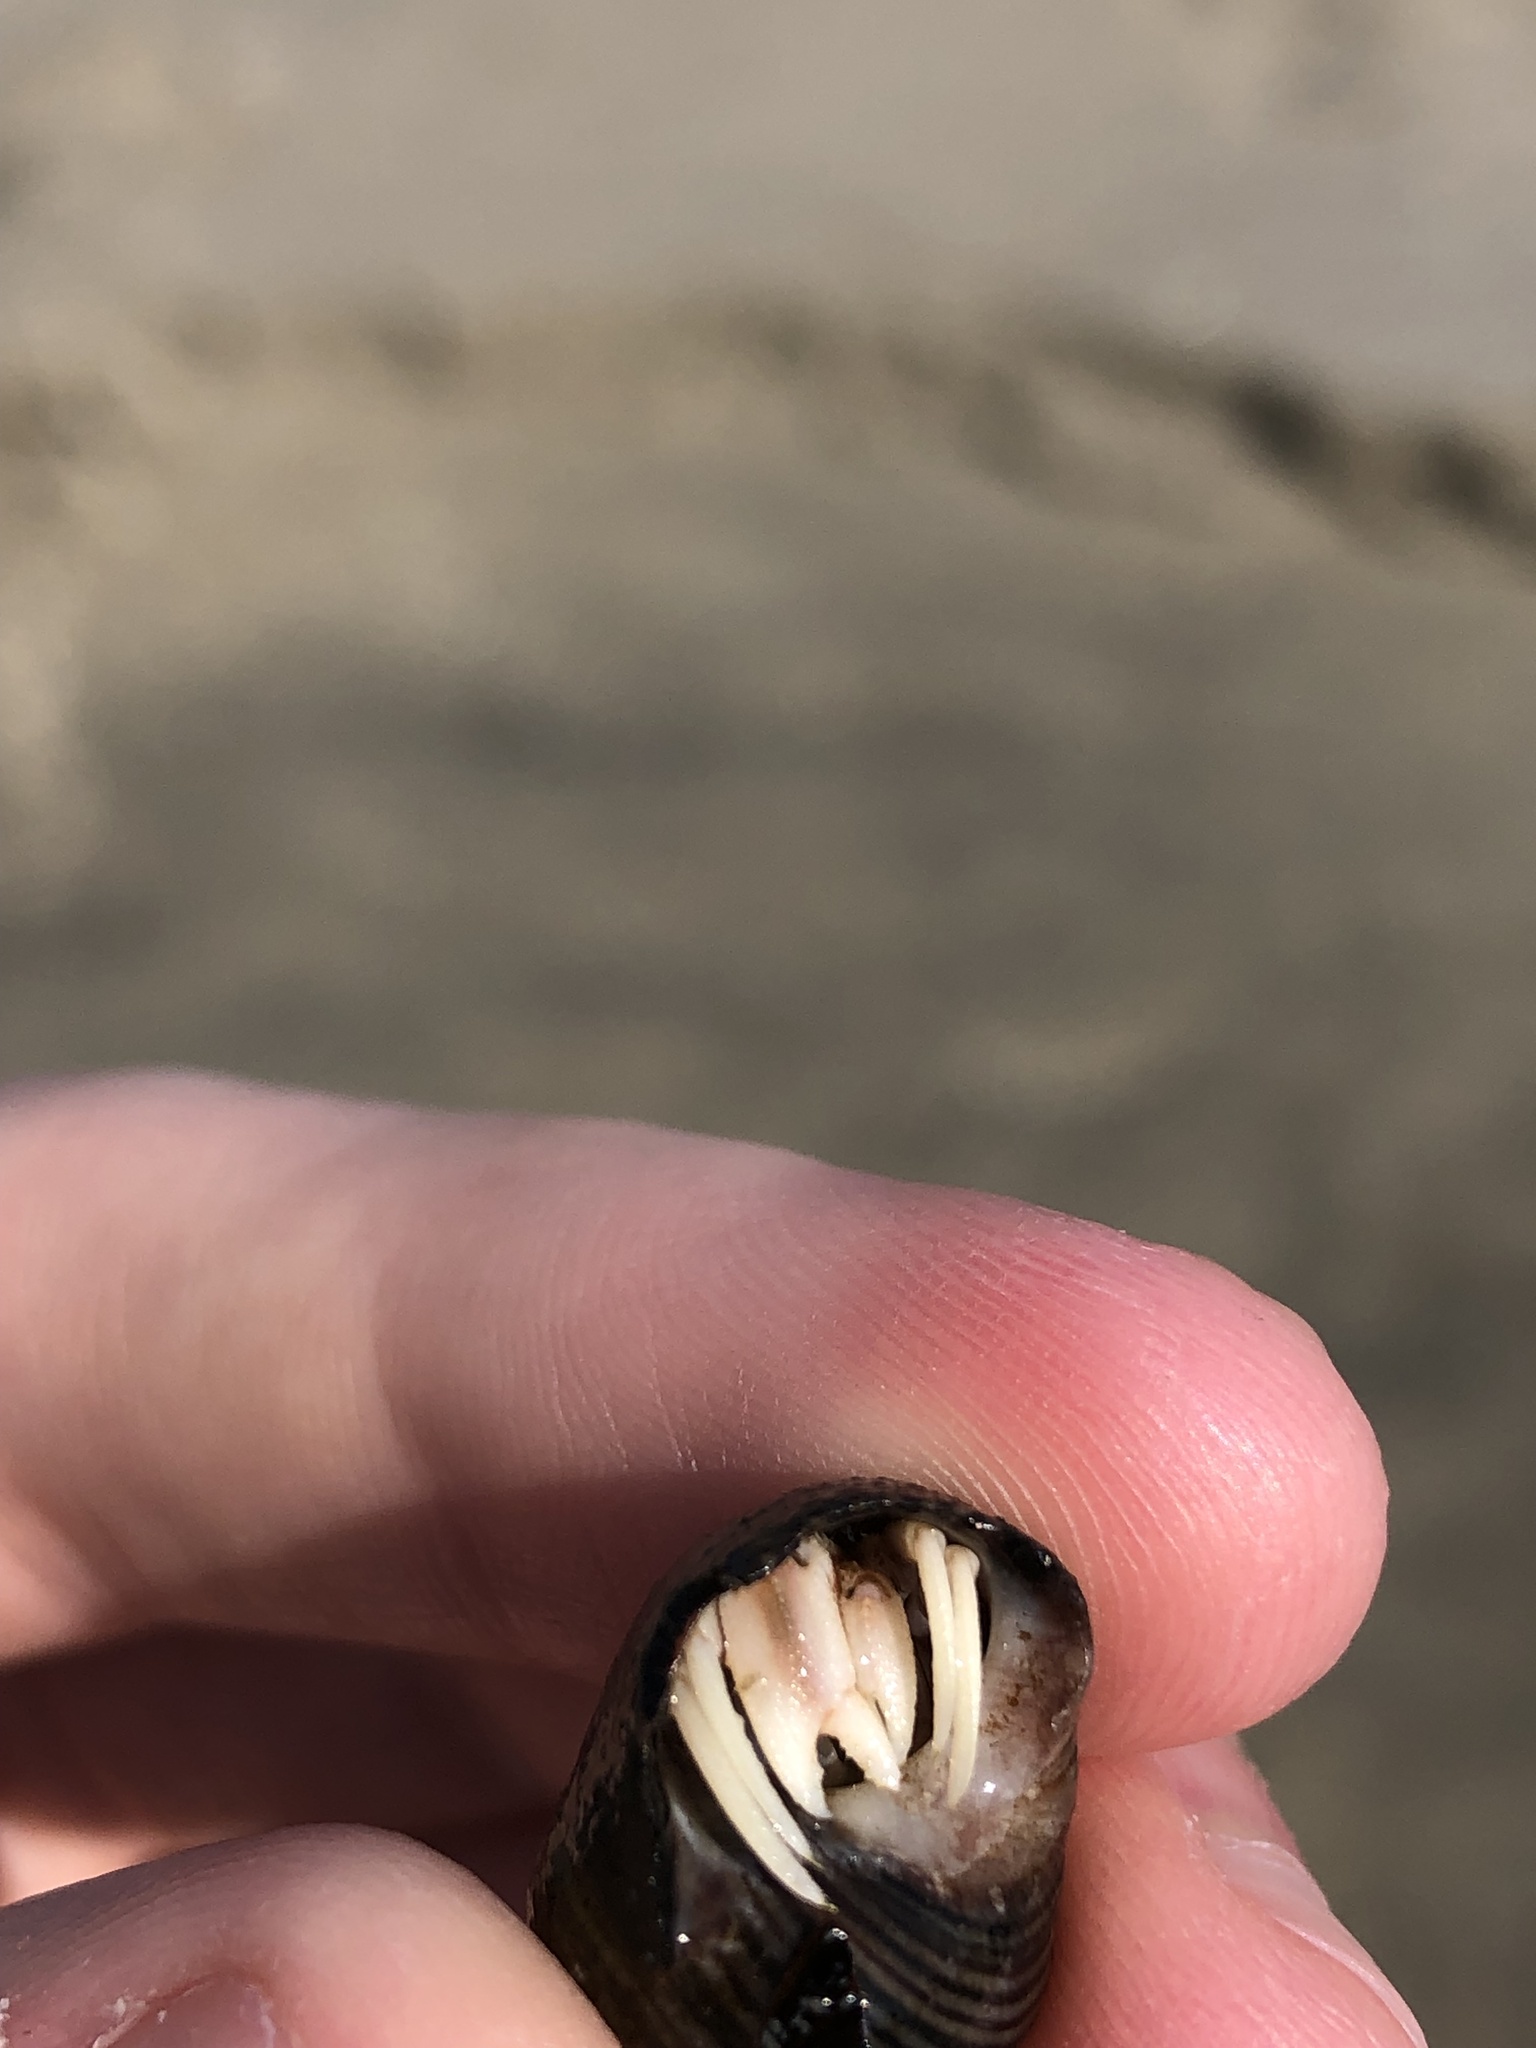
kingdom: Animalia
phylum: Arthropoda
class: Malacostraca
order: Decapoda
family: Paguridae
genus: Pagurus
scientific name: Pagurus longicarpus
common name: Long-armed hermit crab
